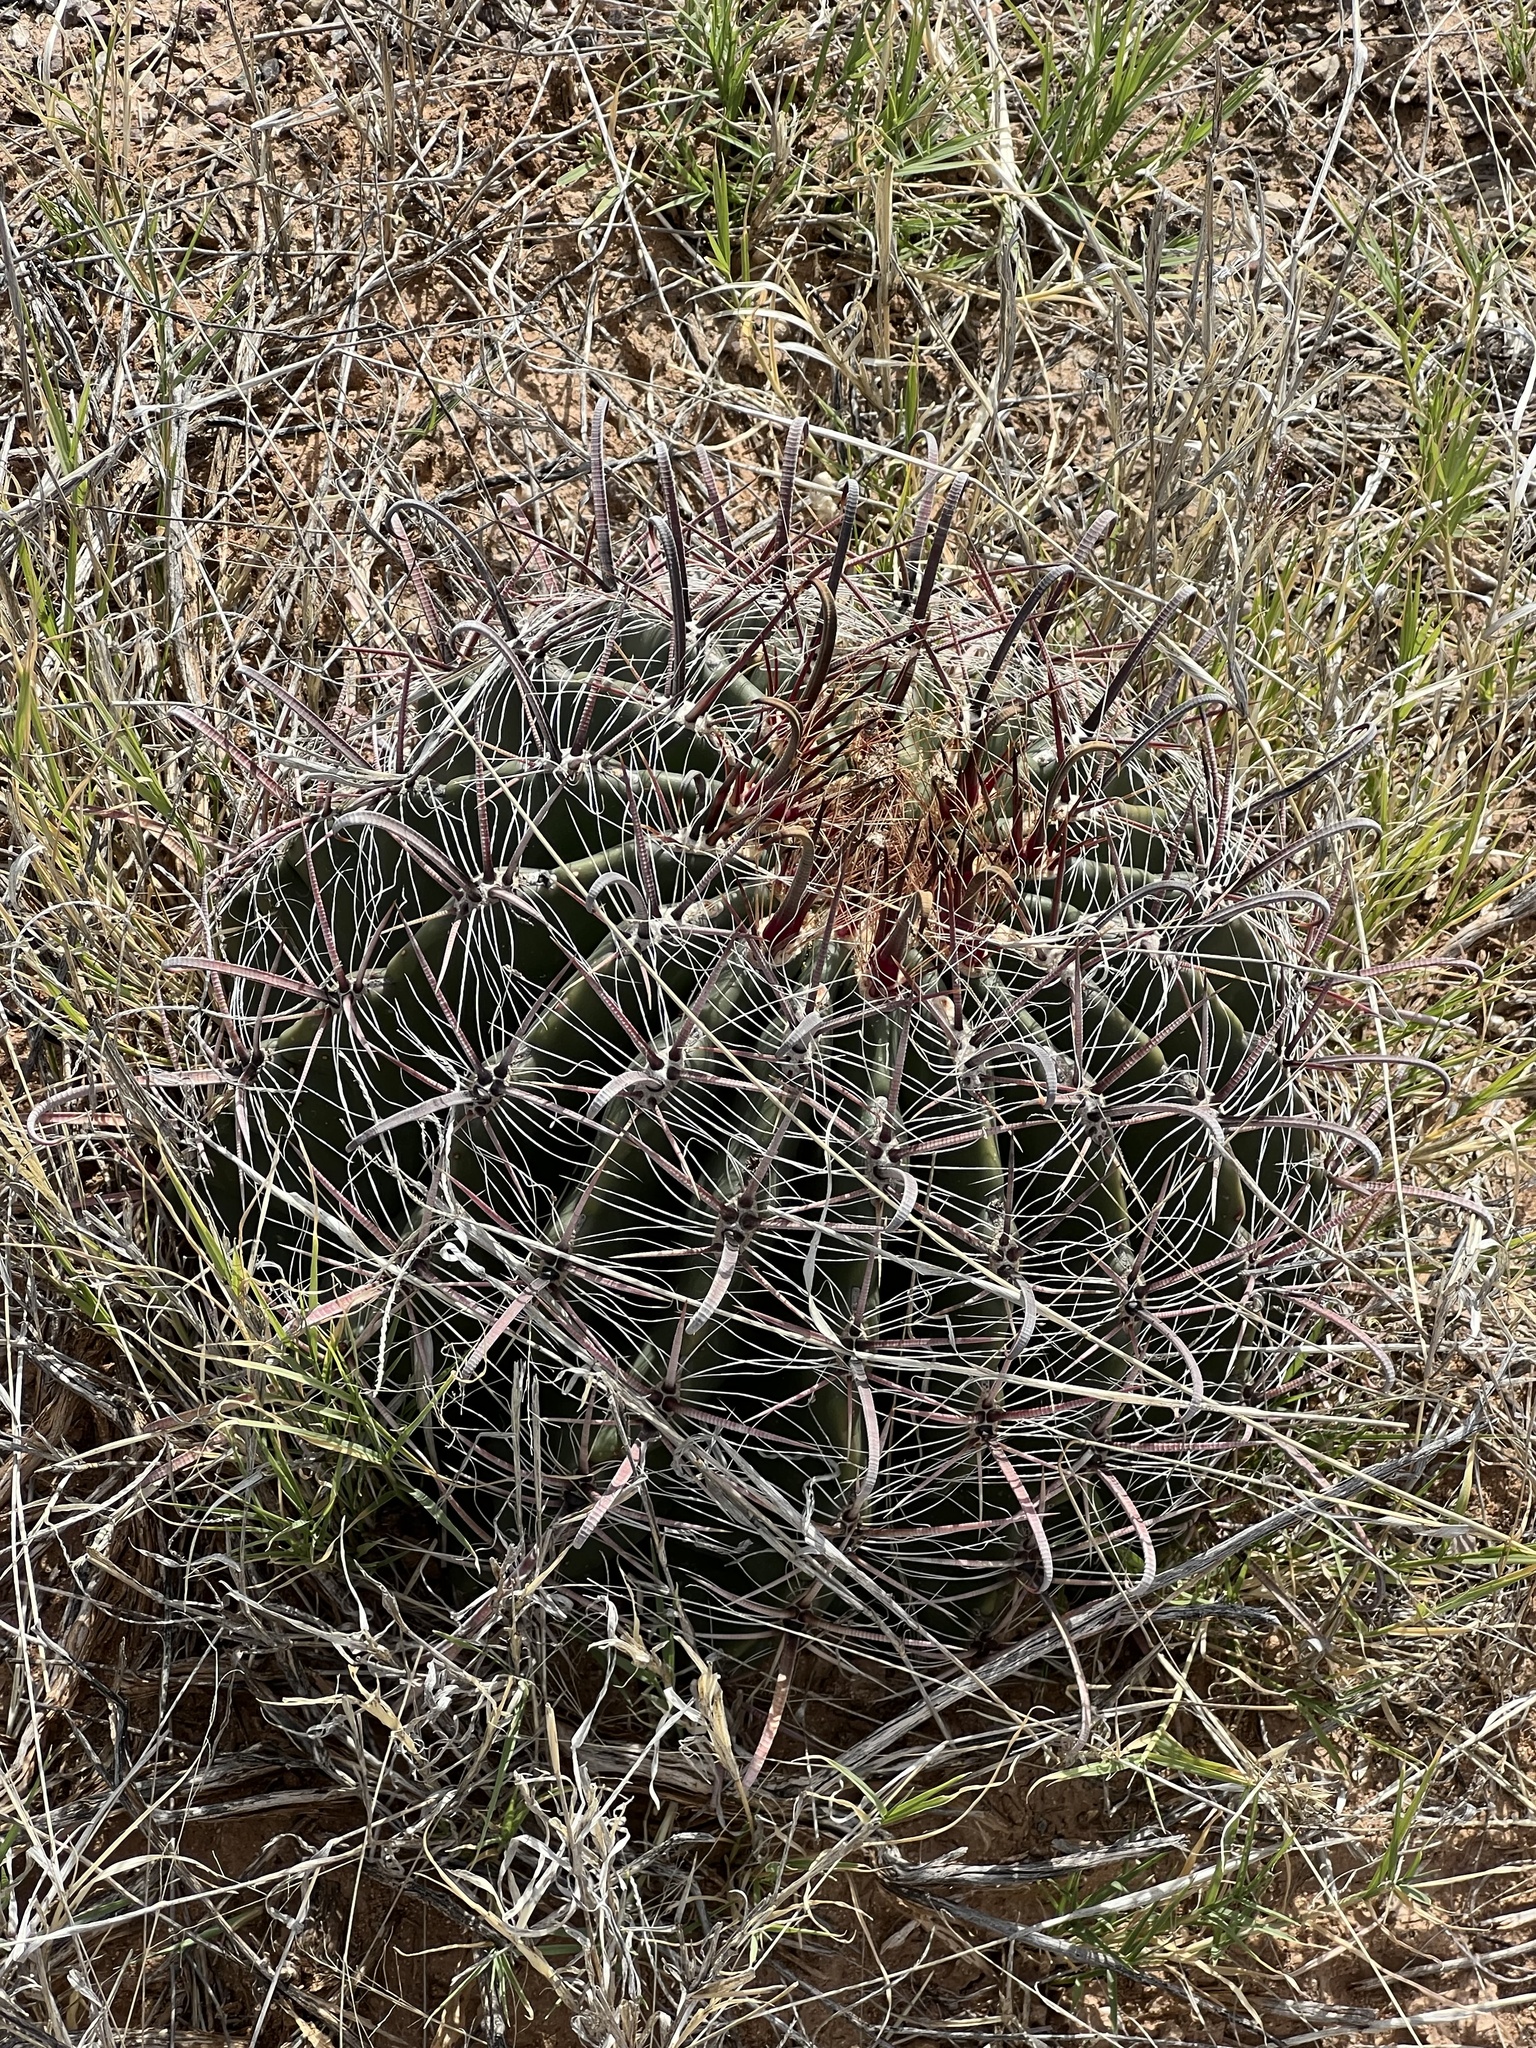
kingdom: Plantae
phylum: Tracheophyta
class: Magnoliopsida
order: Caryophyllales
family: Cactaceae
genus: Ferocactus
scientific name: Ferocactus wislizeni
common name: Candy barrel cactus
